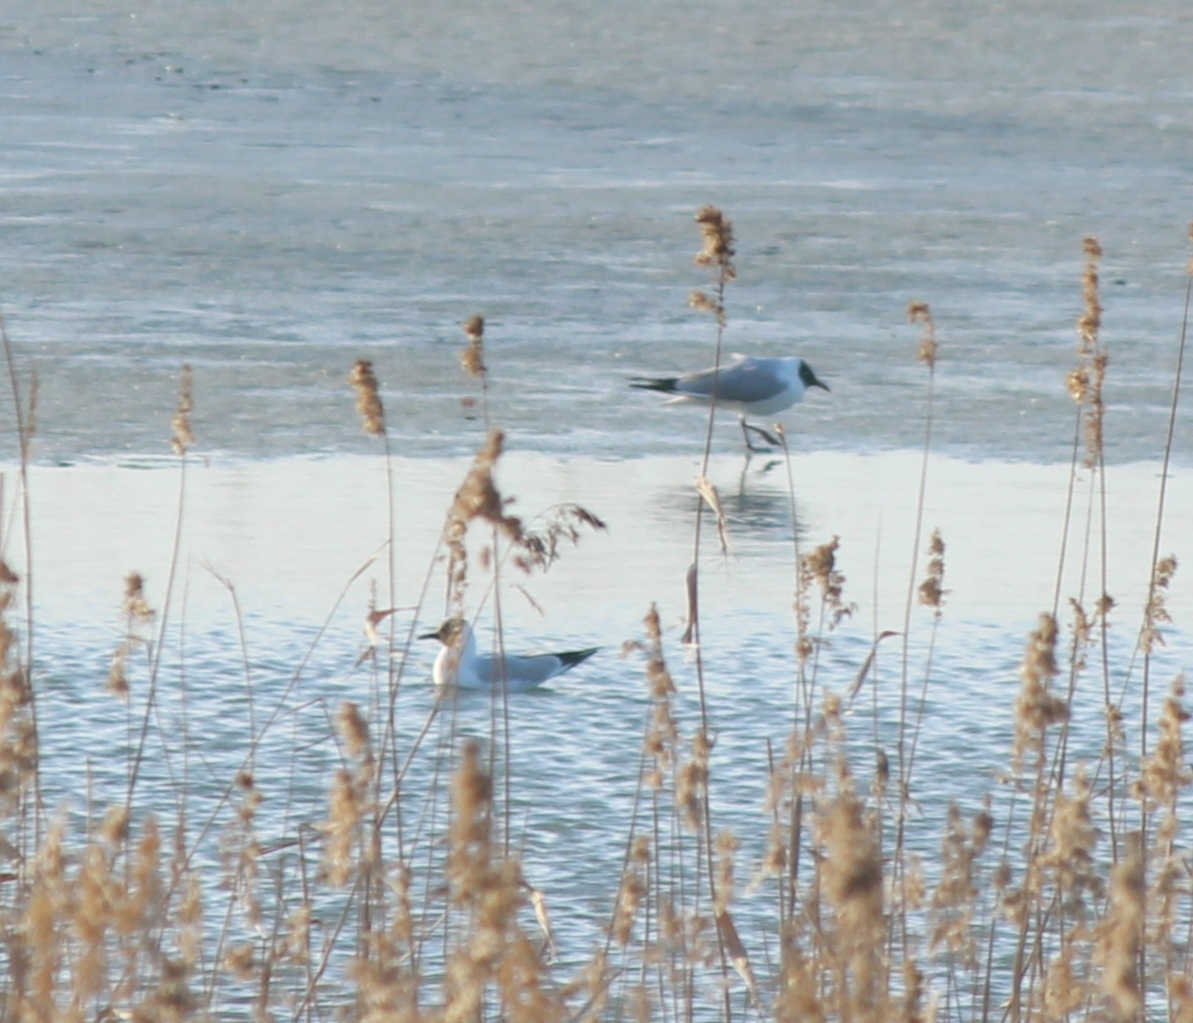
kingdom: Animalia
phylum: Chordata
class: Aves
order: Charadriiformes
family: Laridae
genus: Chroicocephalus
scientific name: Chroicocephalus ridibundus
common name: Black-headed gull
